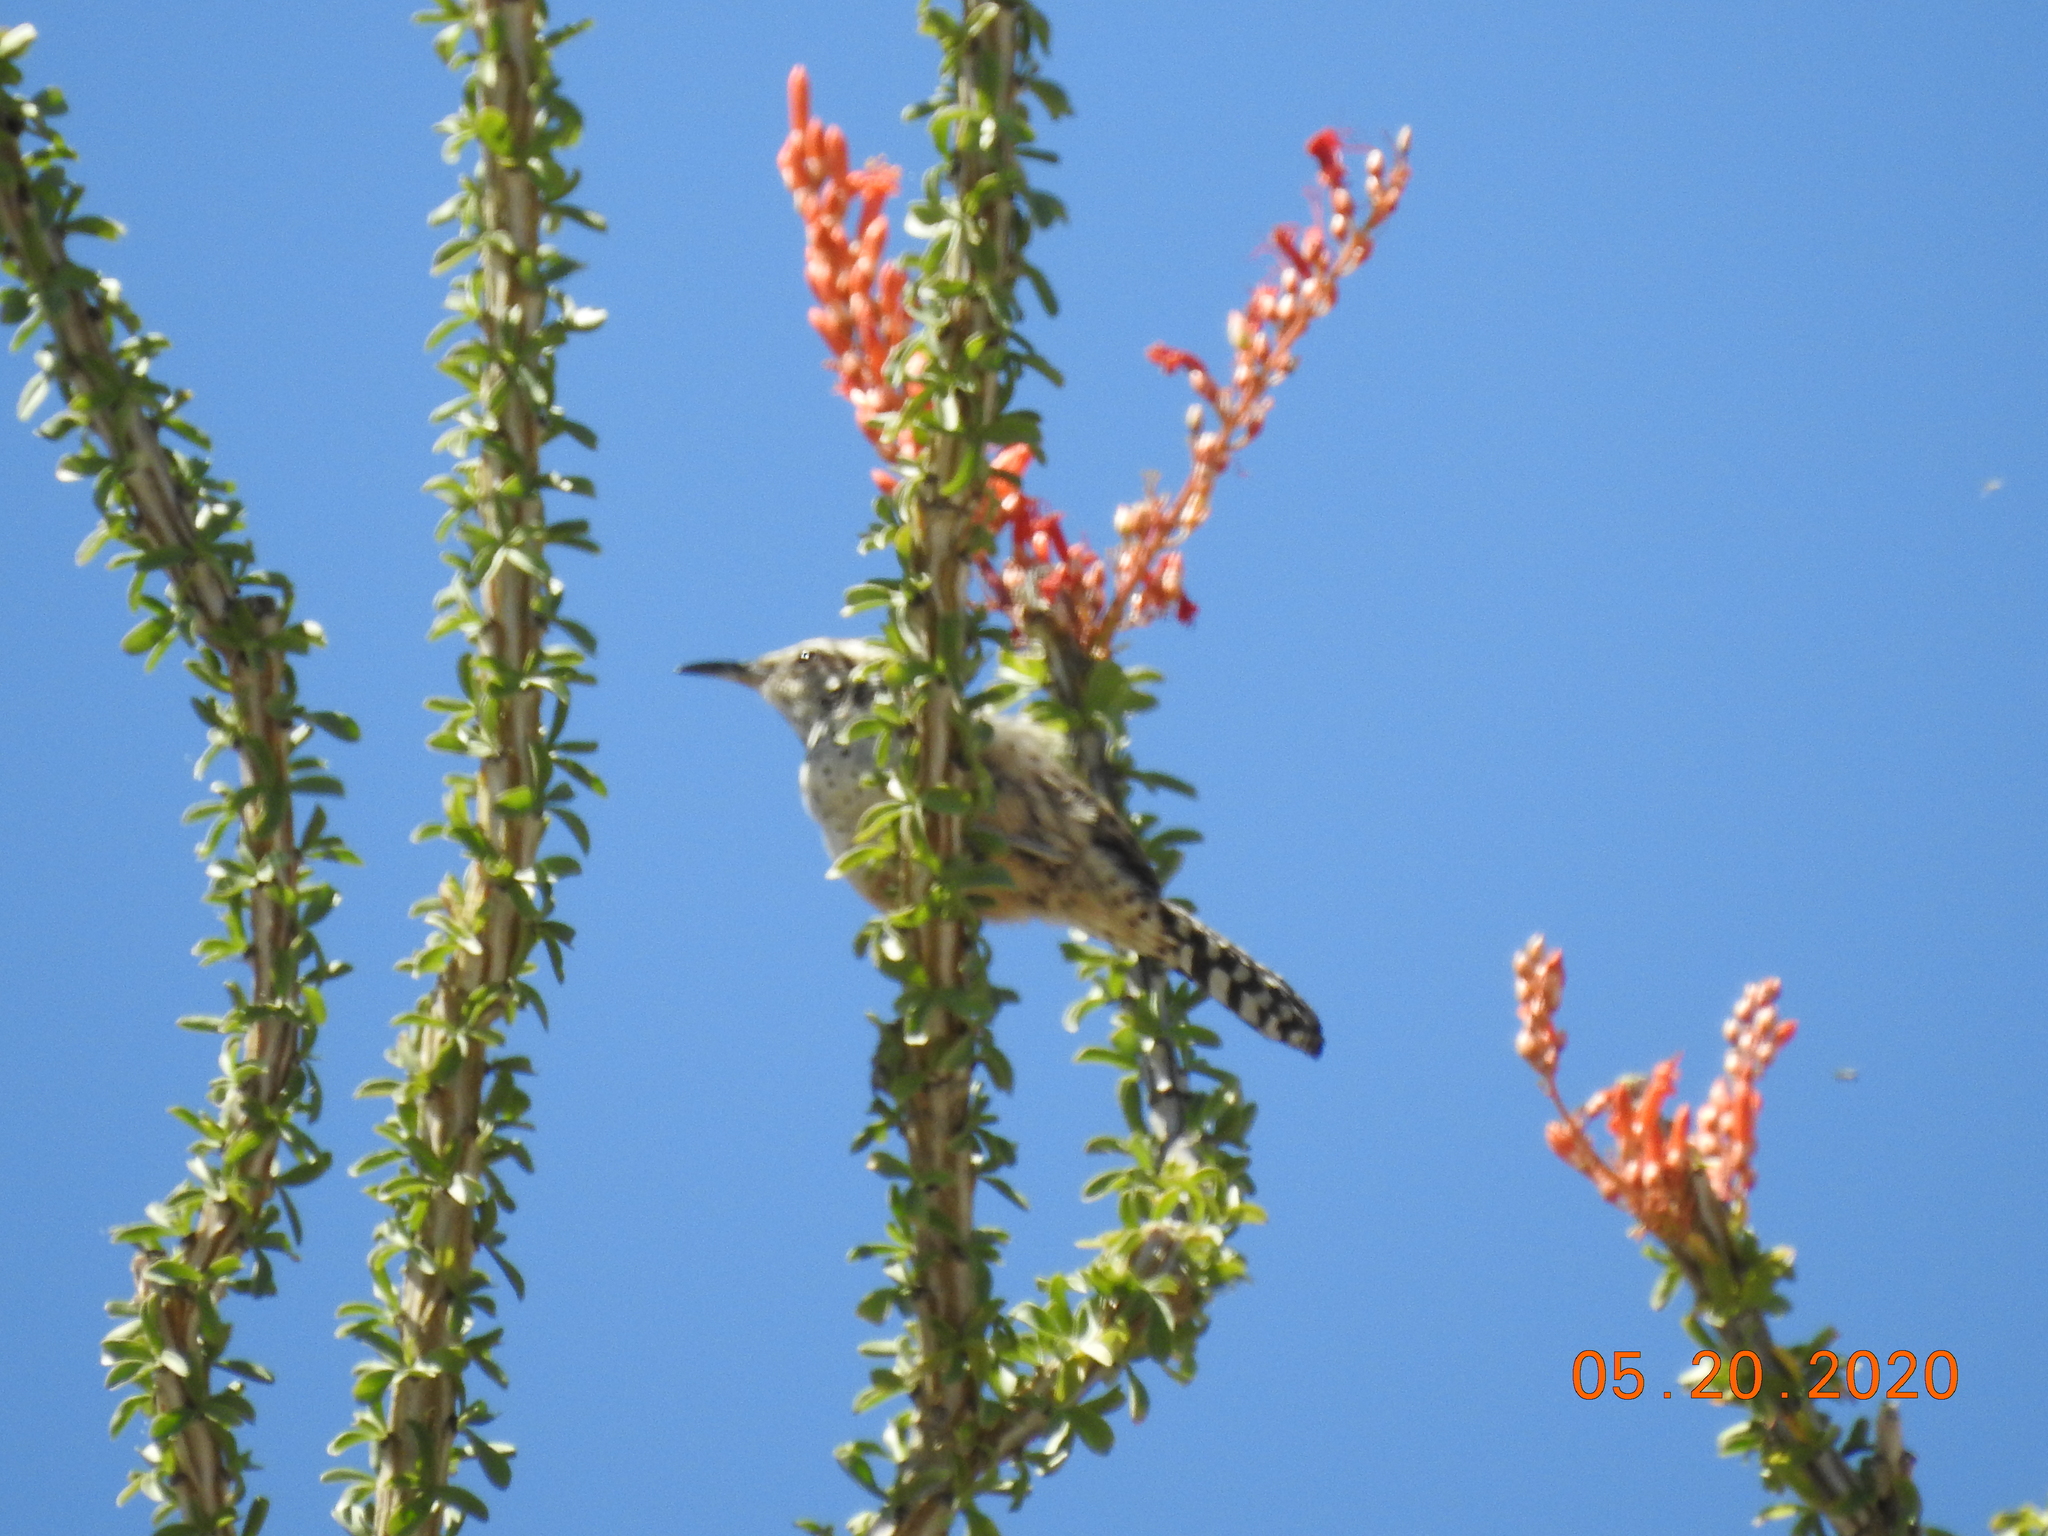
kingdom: Animalia
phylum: Chordata
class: Aves
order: Passeriformes
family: Troglodytidae
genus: Campylorhynchus
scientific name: Campylorhynchus brunneicapillus
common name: Cactus wren
